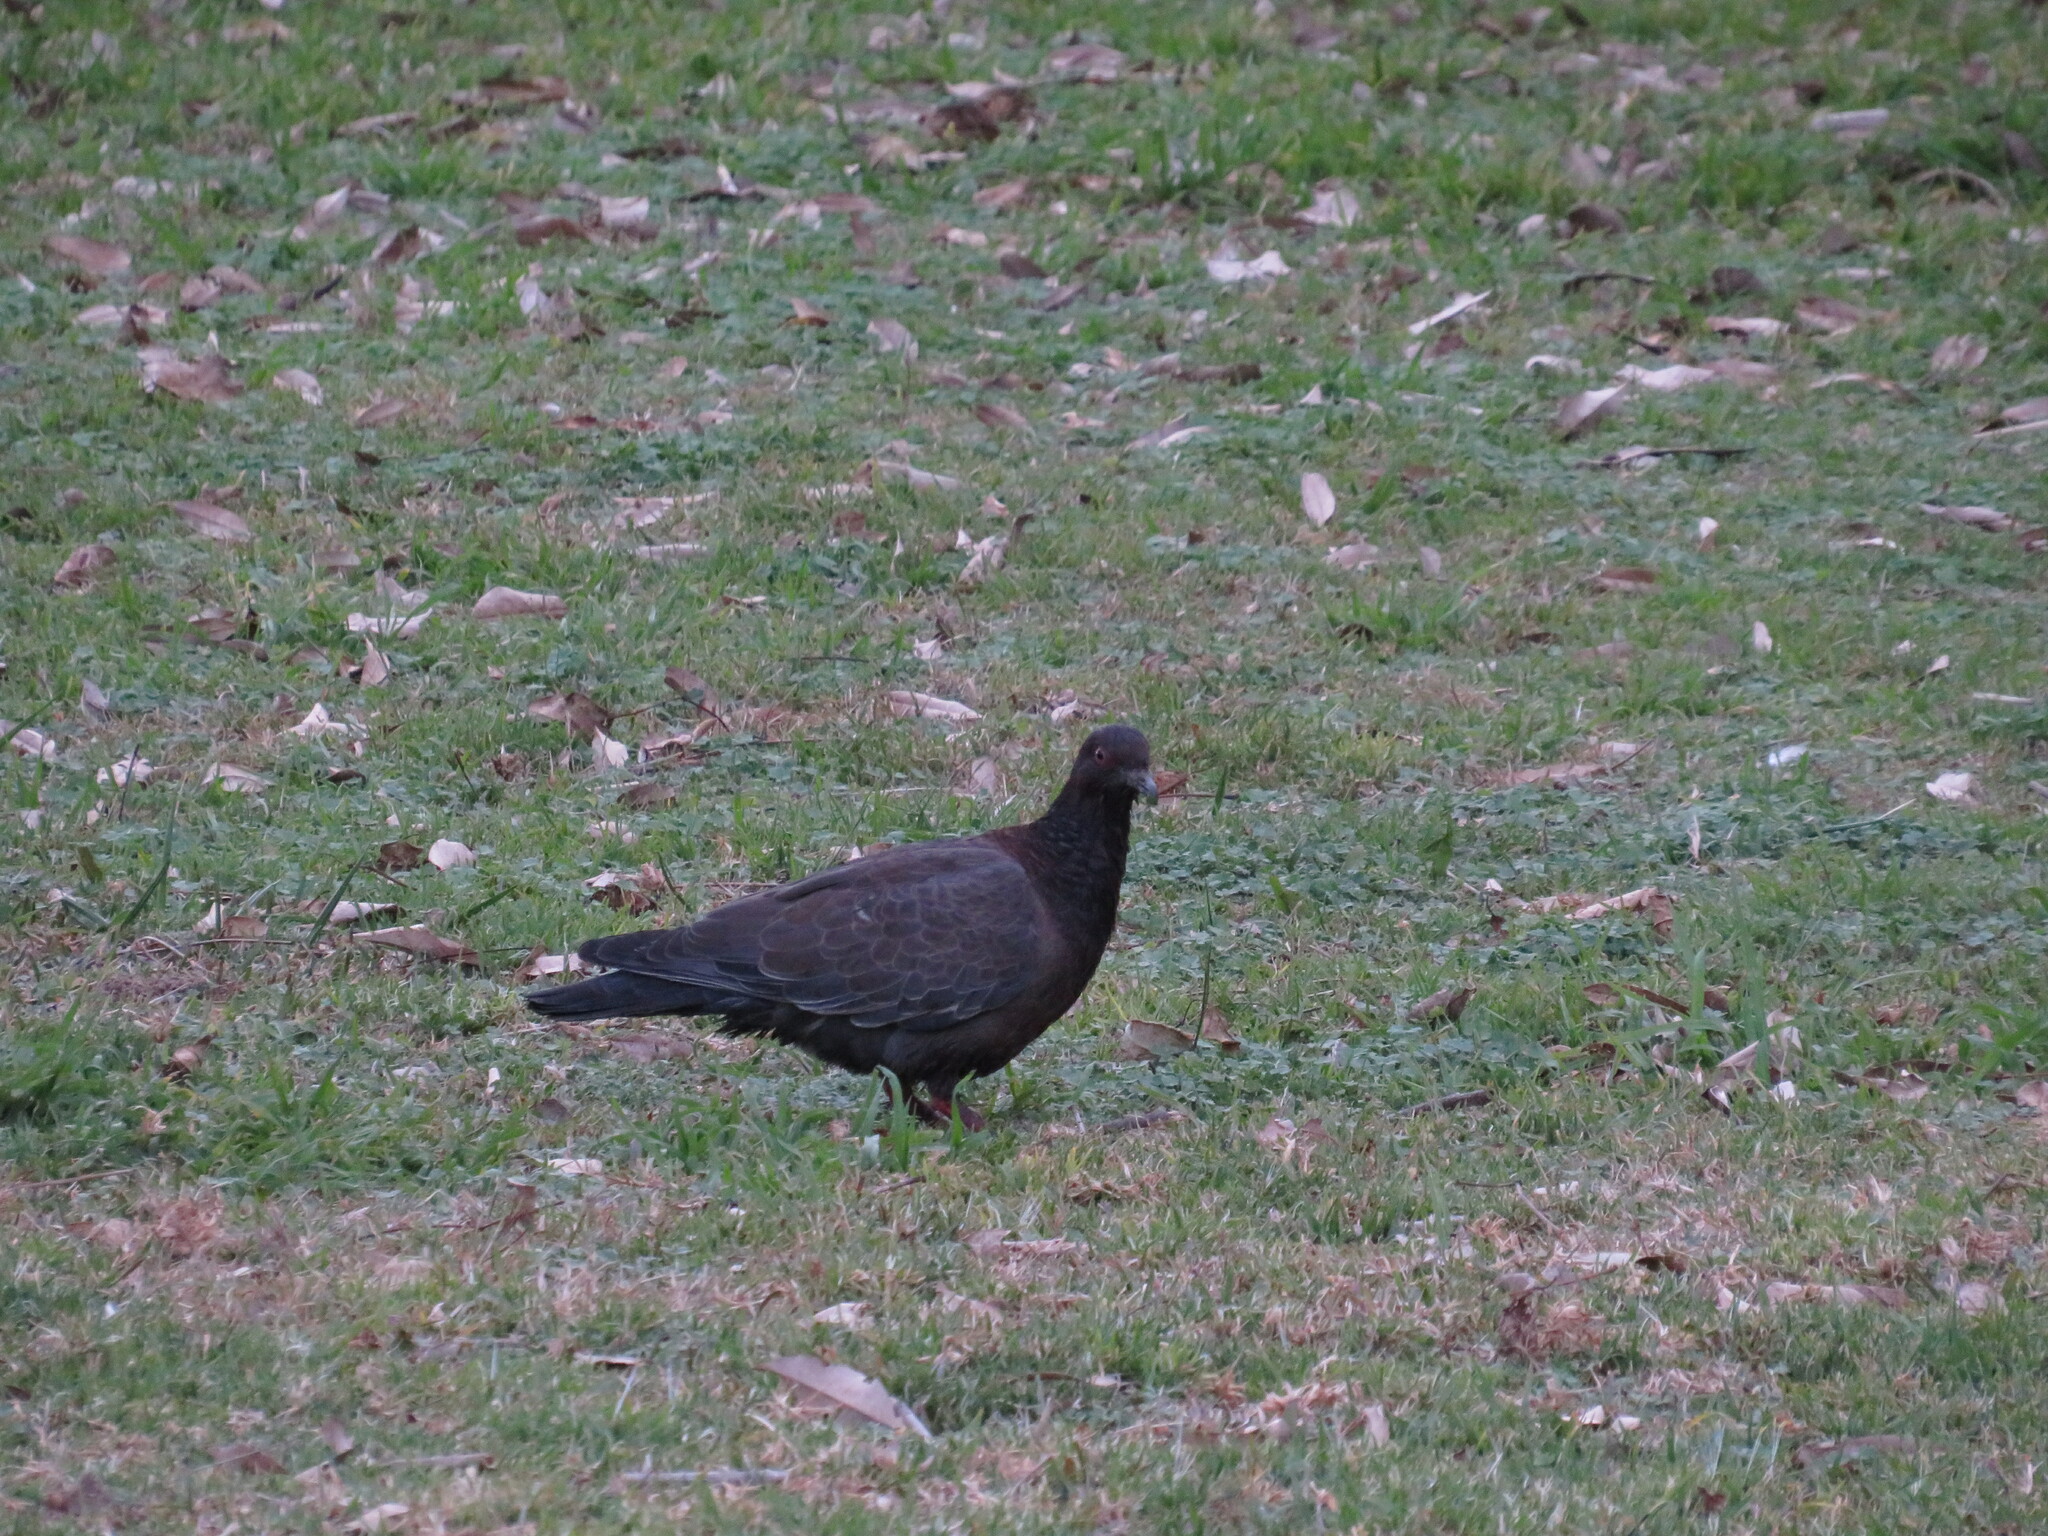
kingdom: Animalia
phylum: Chordata
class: Aves
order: Columbiformes
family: Columbidae
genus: Patagioenas
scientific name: Patagioenas picazuro
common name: Picazuro pigeon
